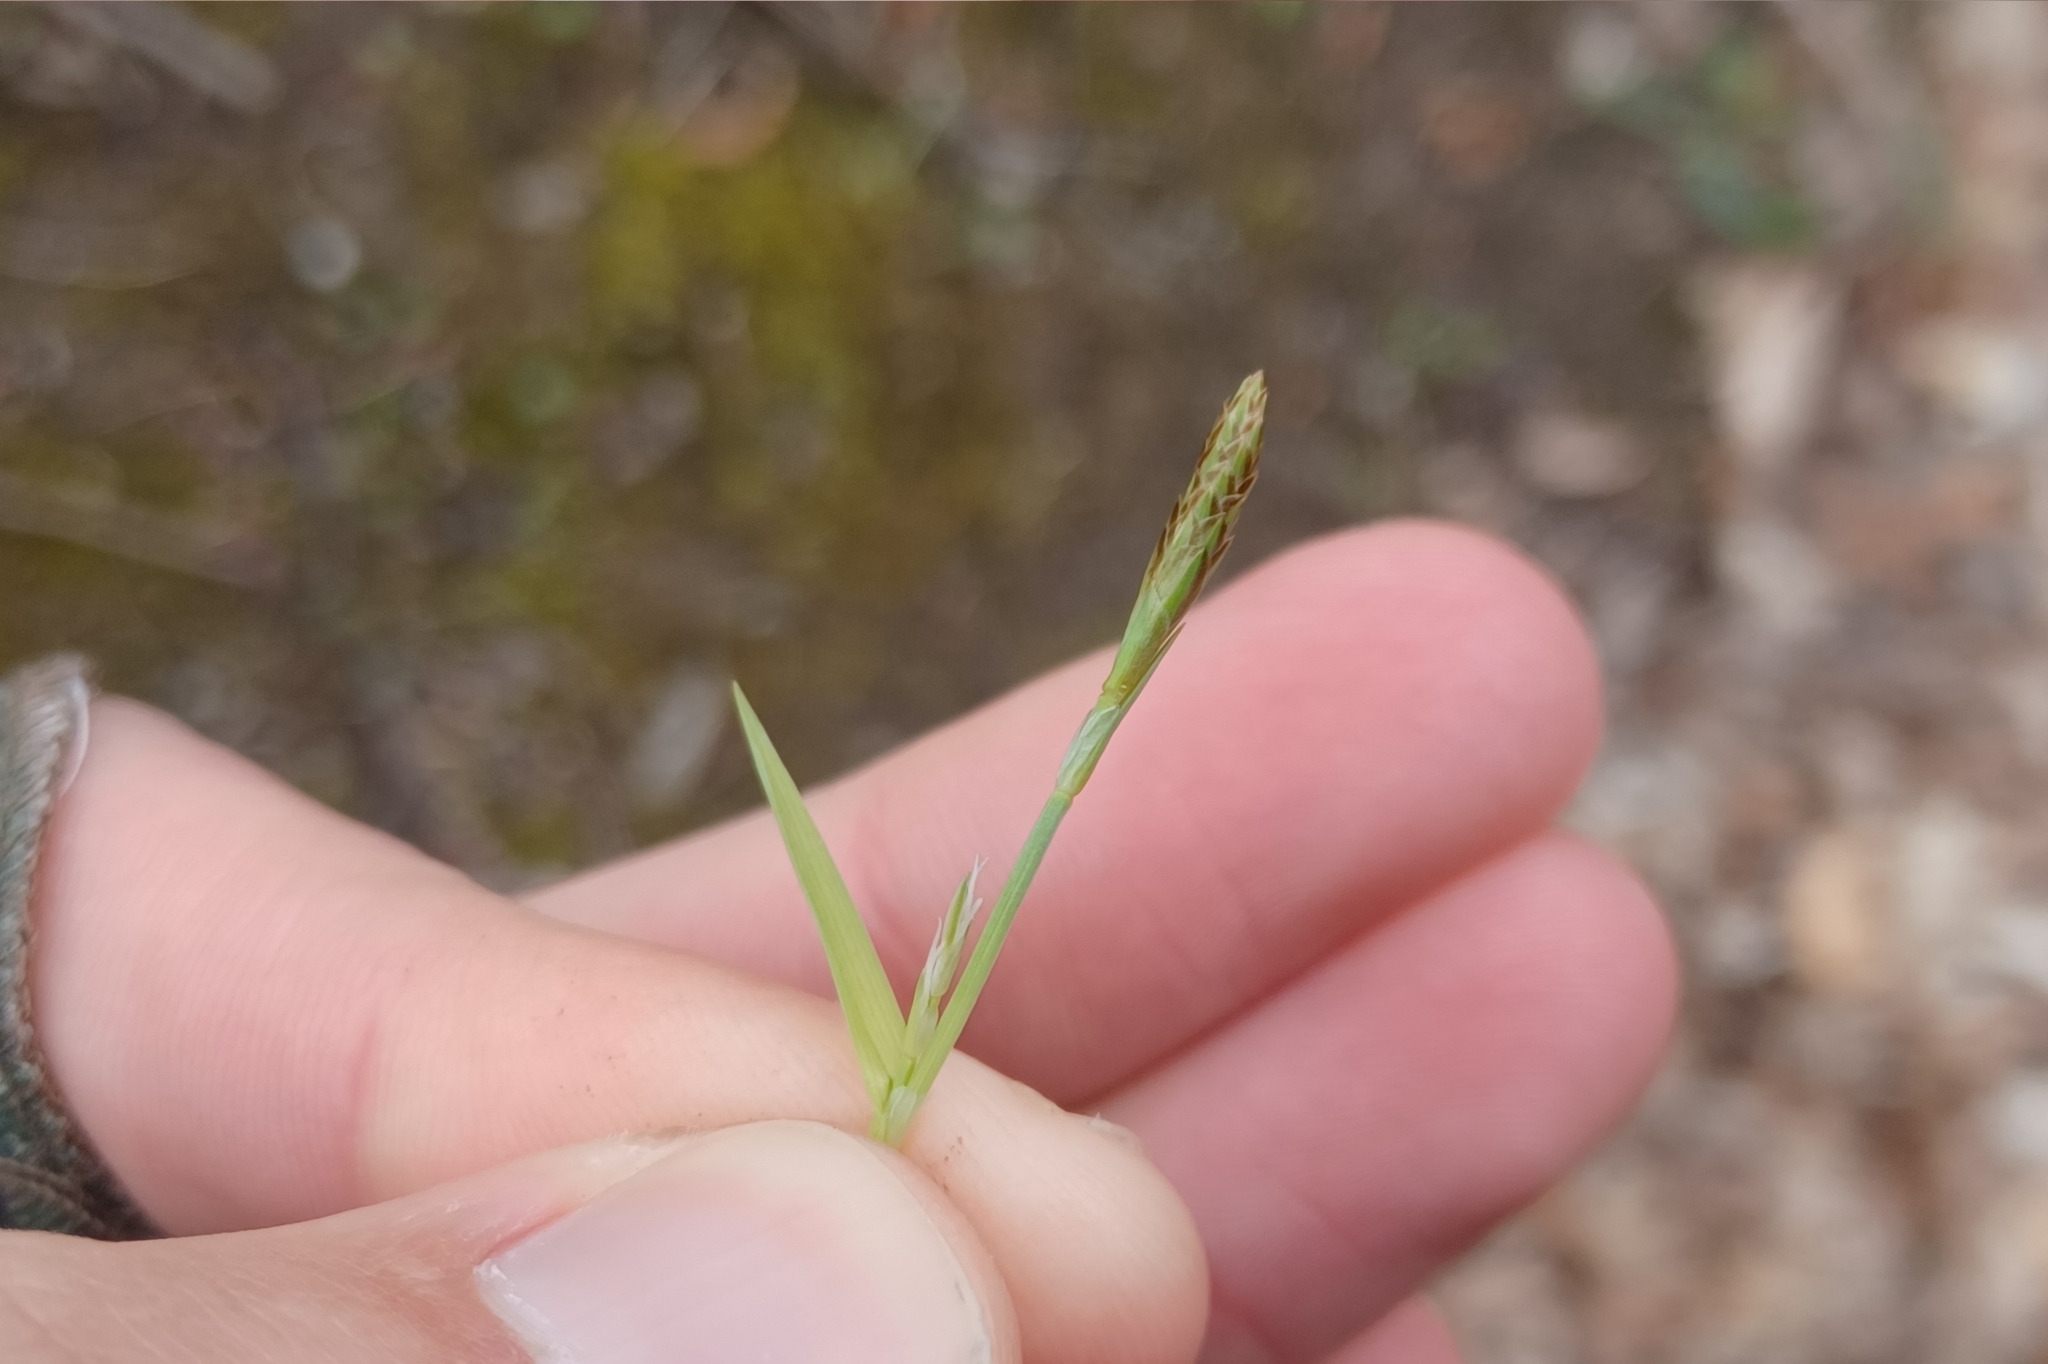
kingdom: Plantae
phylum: Tracheophyta
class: Liliopsida
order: Poales
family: Cyperaceae
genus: Carex
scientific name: Carex platyphylla
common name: Broad-leaved sedge
